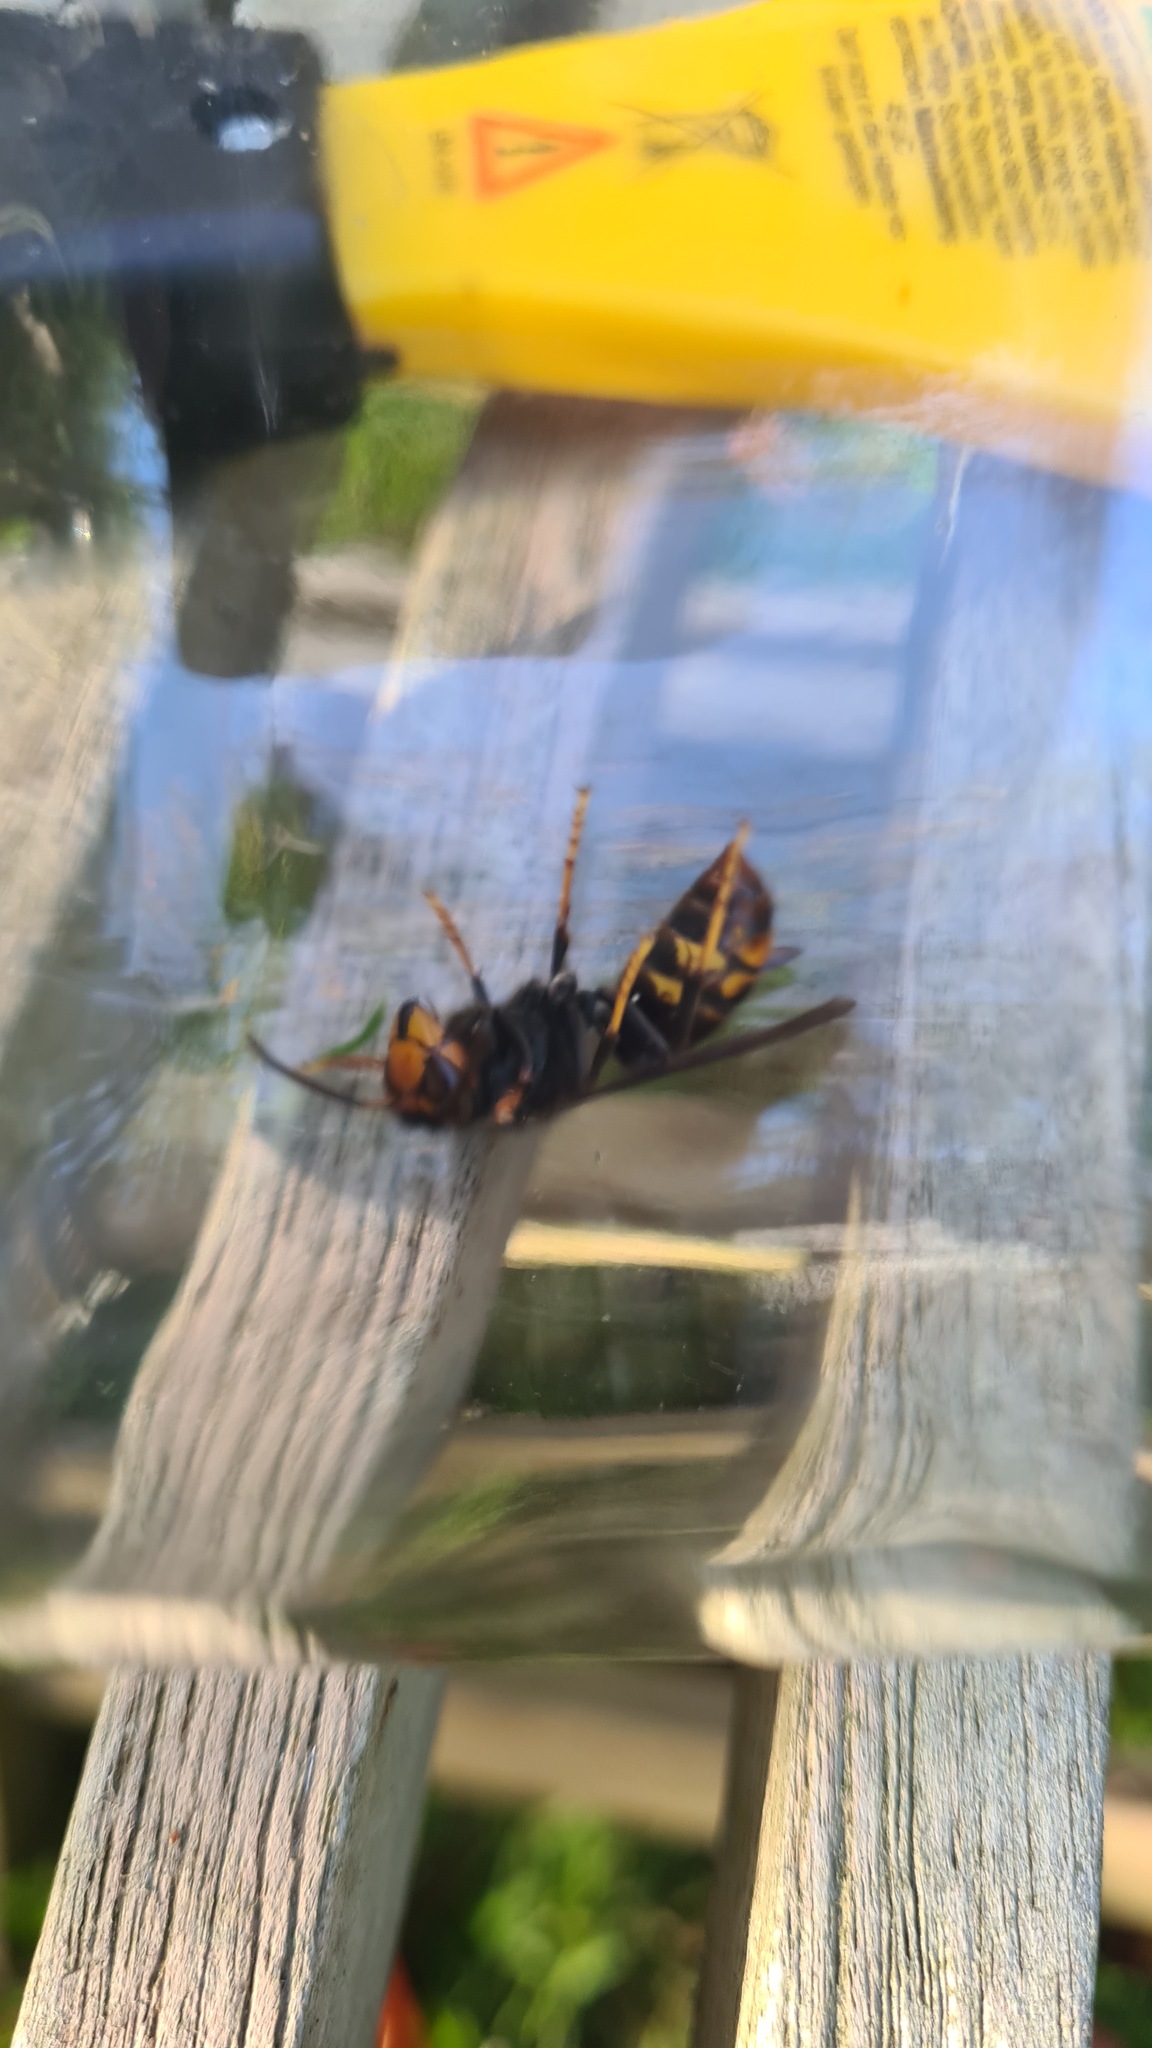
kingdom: Animalia
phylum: Arthropoda
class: Insecta
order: Hymenoptera
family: Vespidae
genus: Vespa
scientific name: Vespa velutina
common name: Asian hornet
